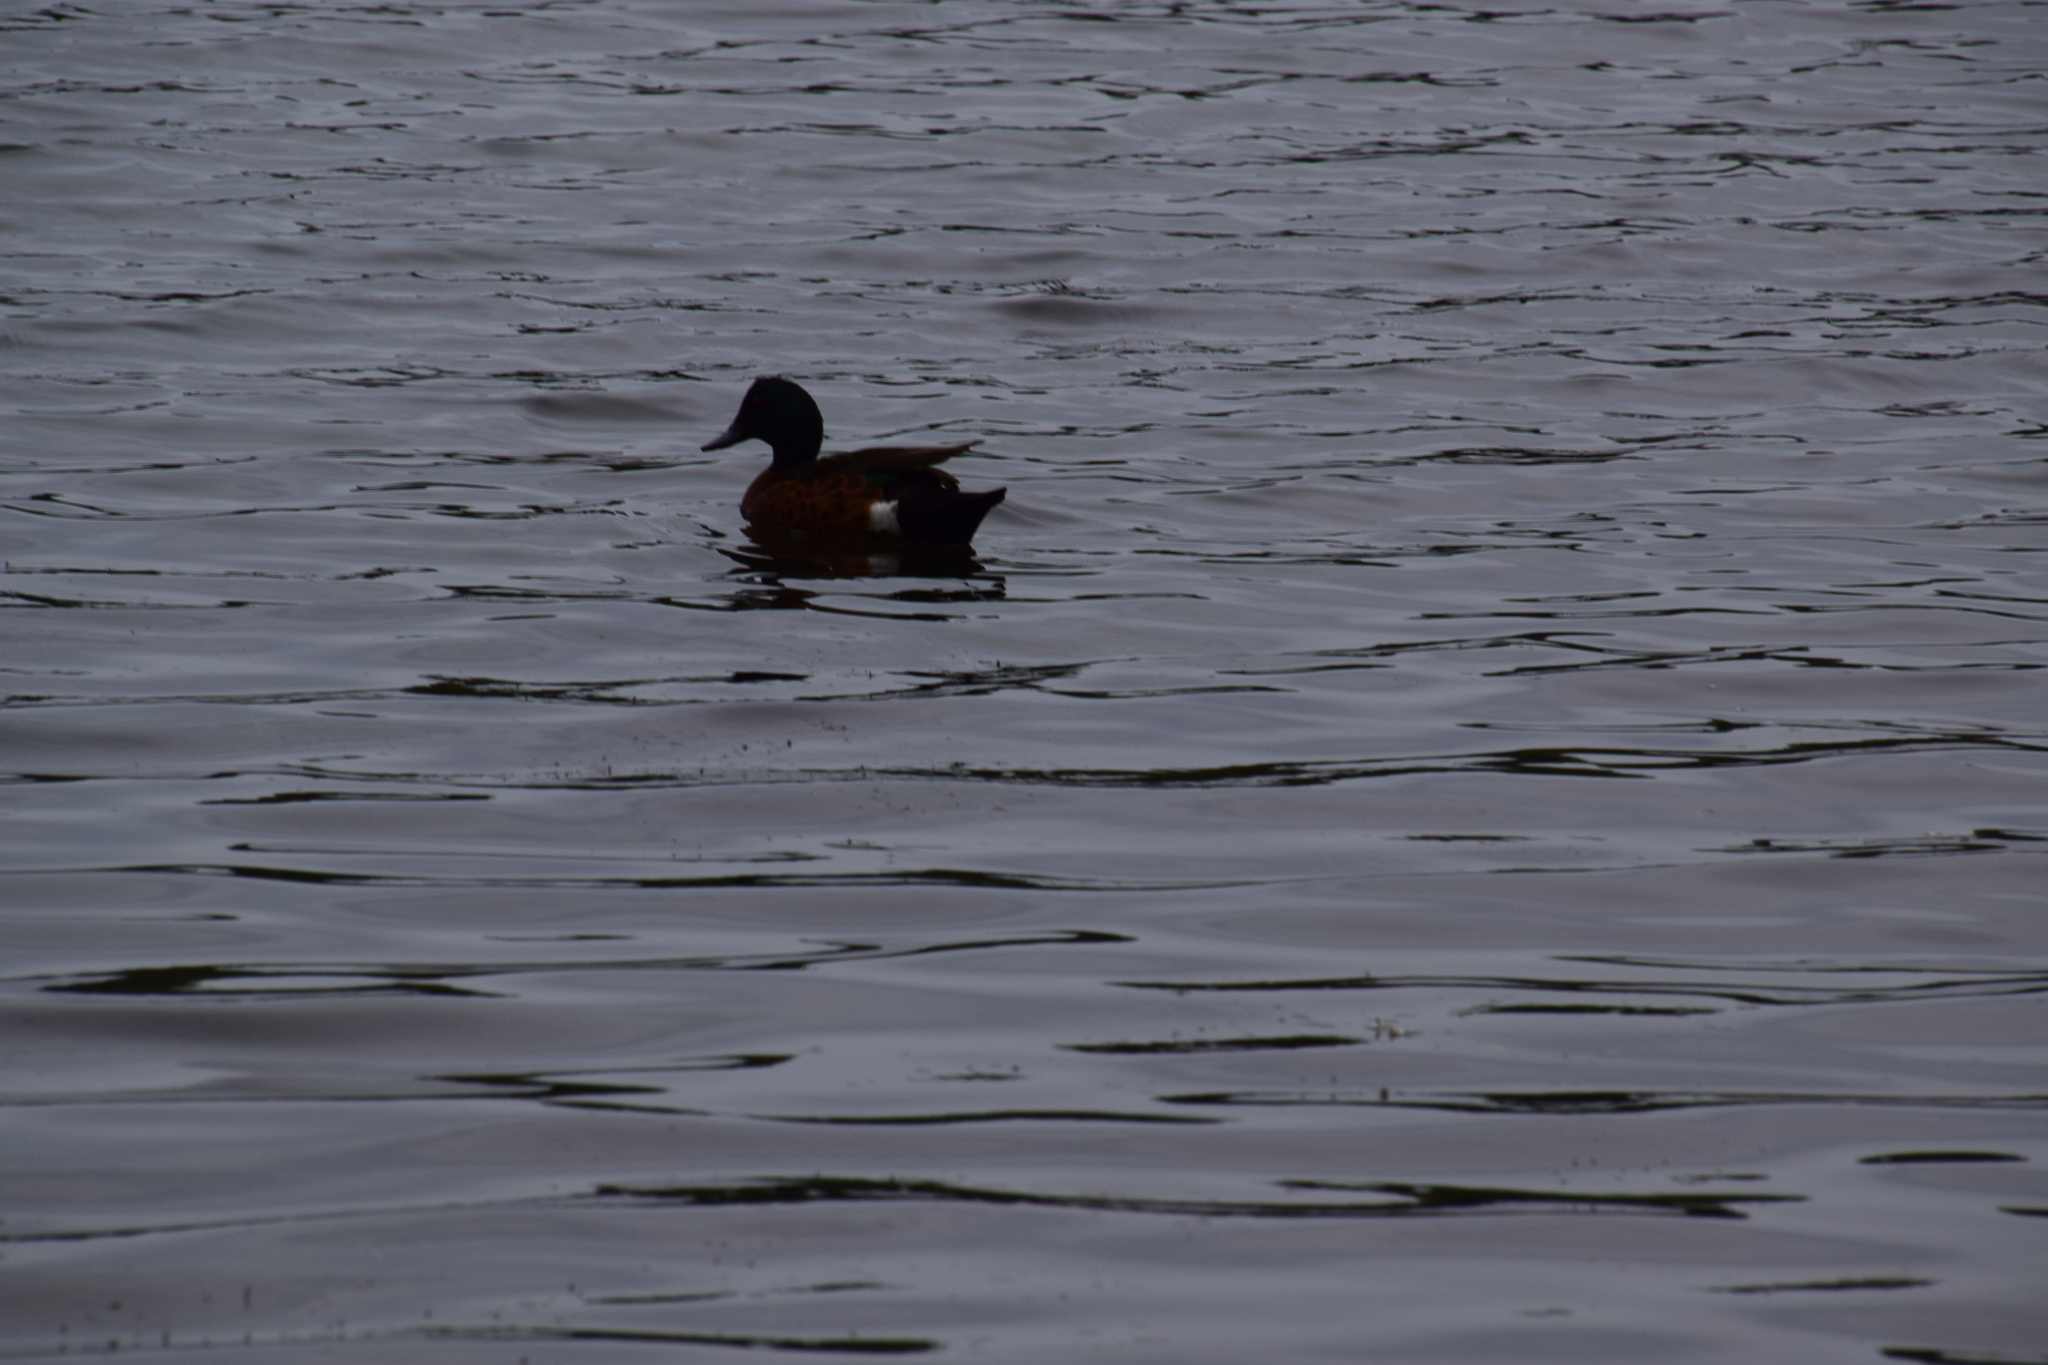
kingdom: Animalia
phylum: Chordata
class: Aves
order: Anseriformes
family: Anatidae
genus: Anas
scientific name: Anas castanea
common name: Chestnut teal
